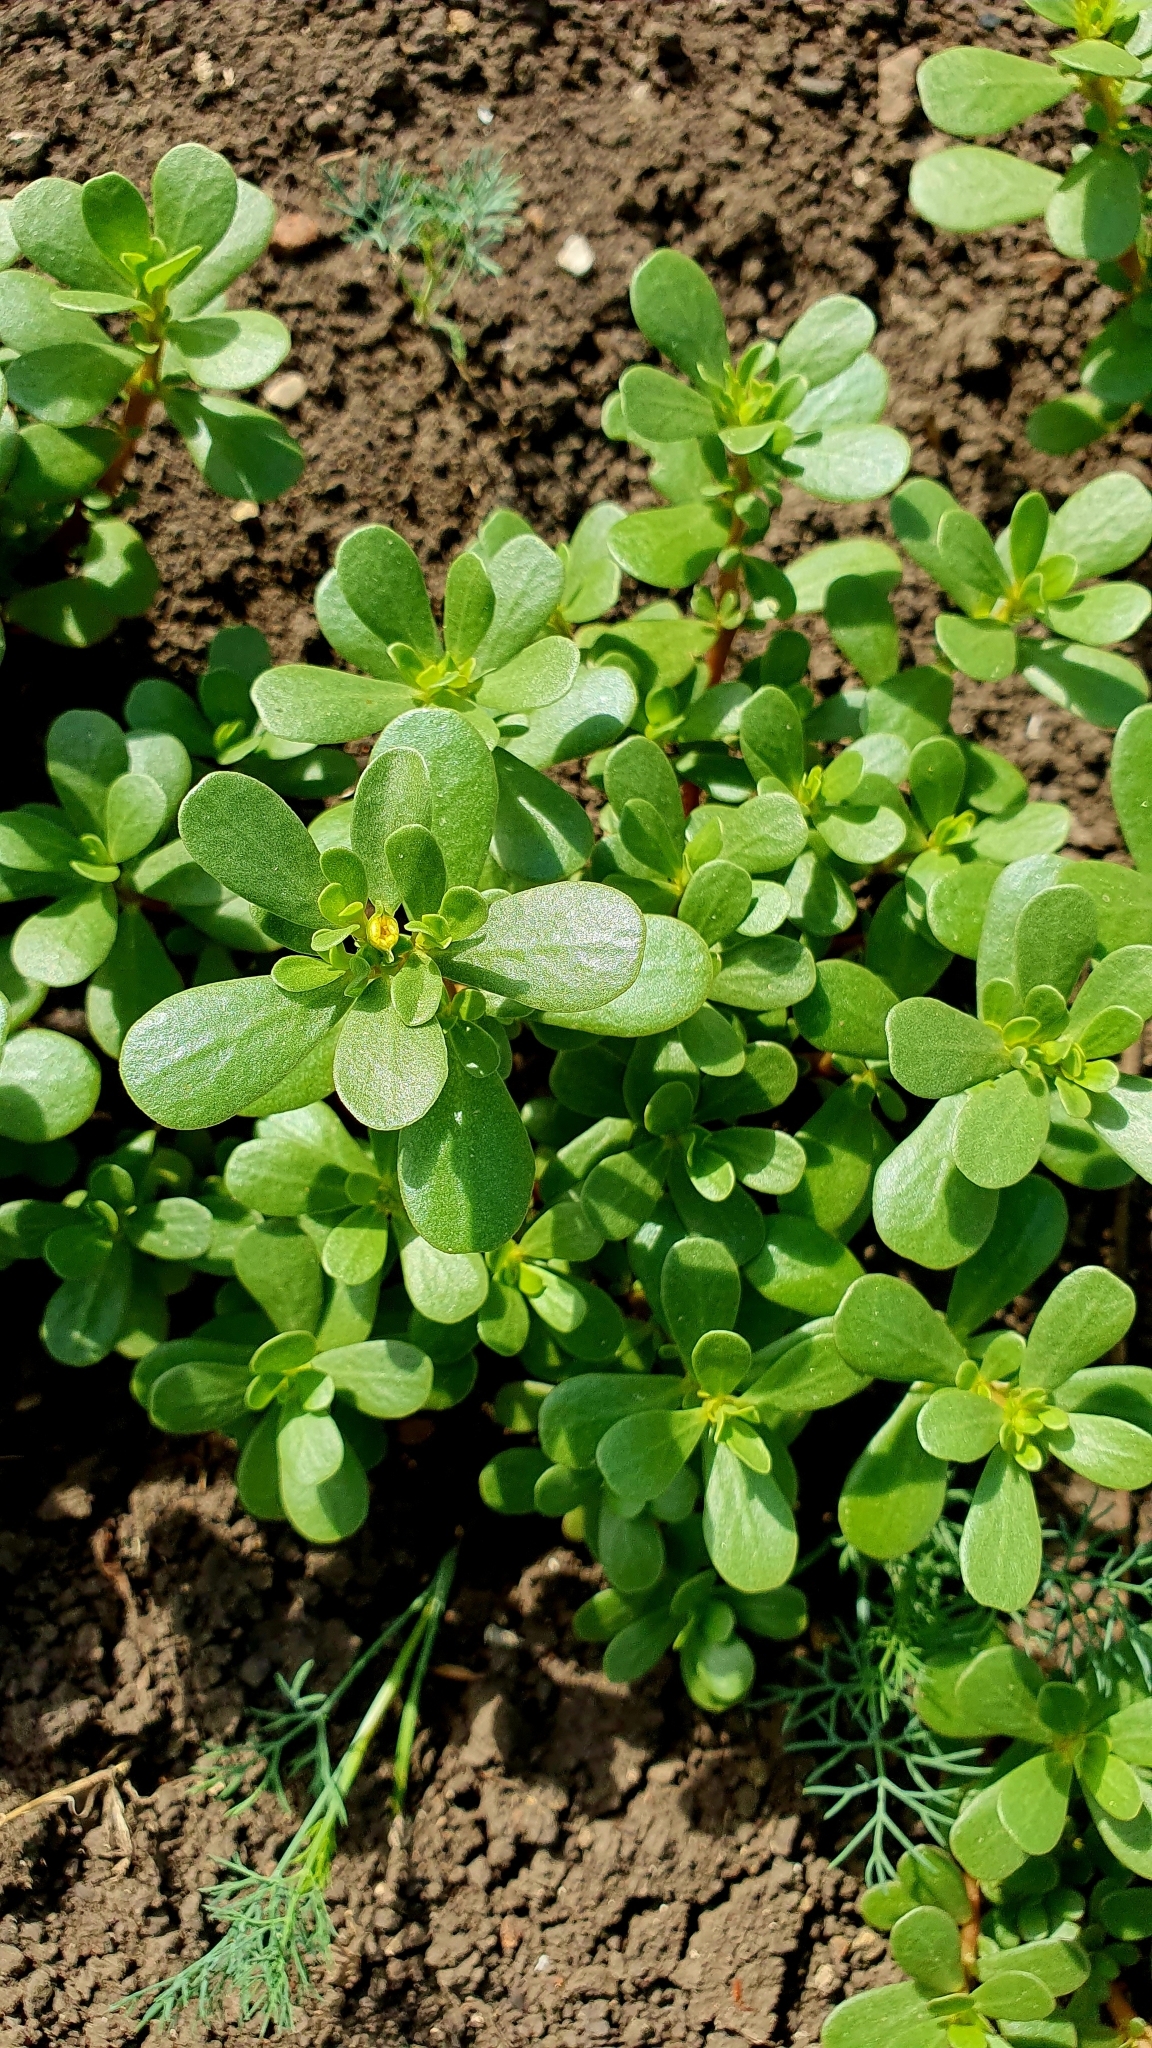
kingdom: Plantae
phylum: Tracheophyta
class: Magnoliopsida
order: Caryophyllales
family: Portulacaceae
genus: Portulaca
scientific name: Portulaca oleracea
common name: Common purslane
